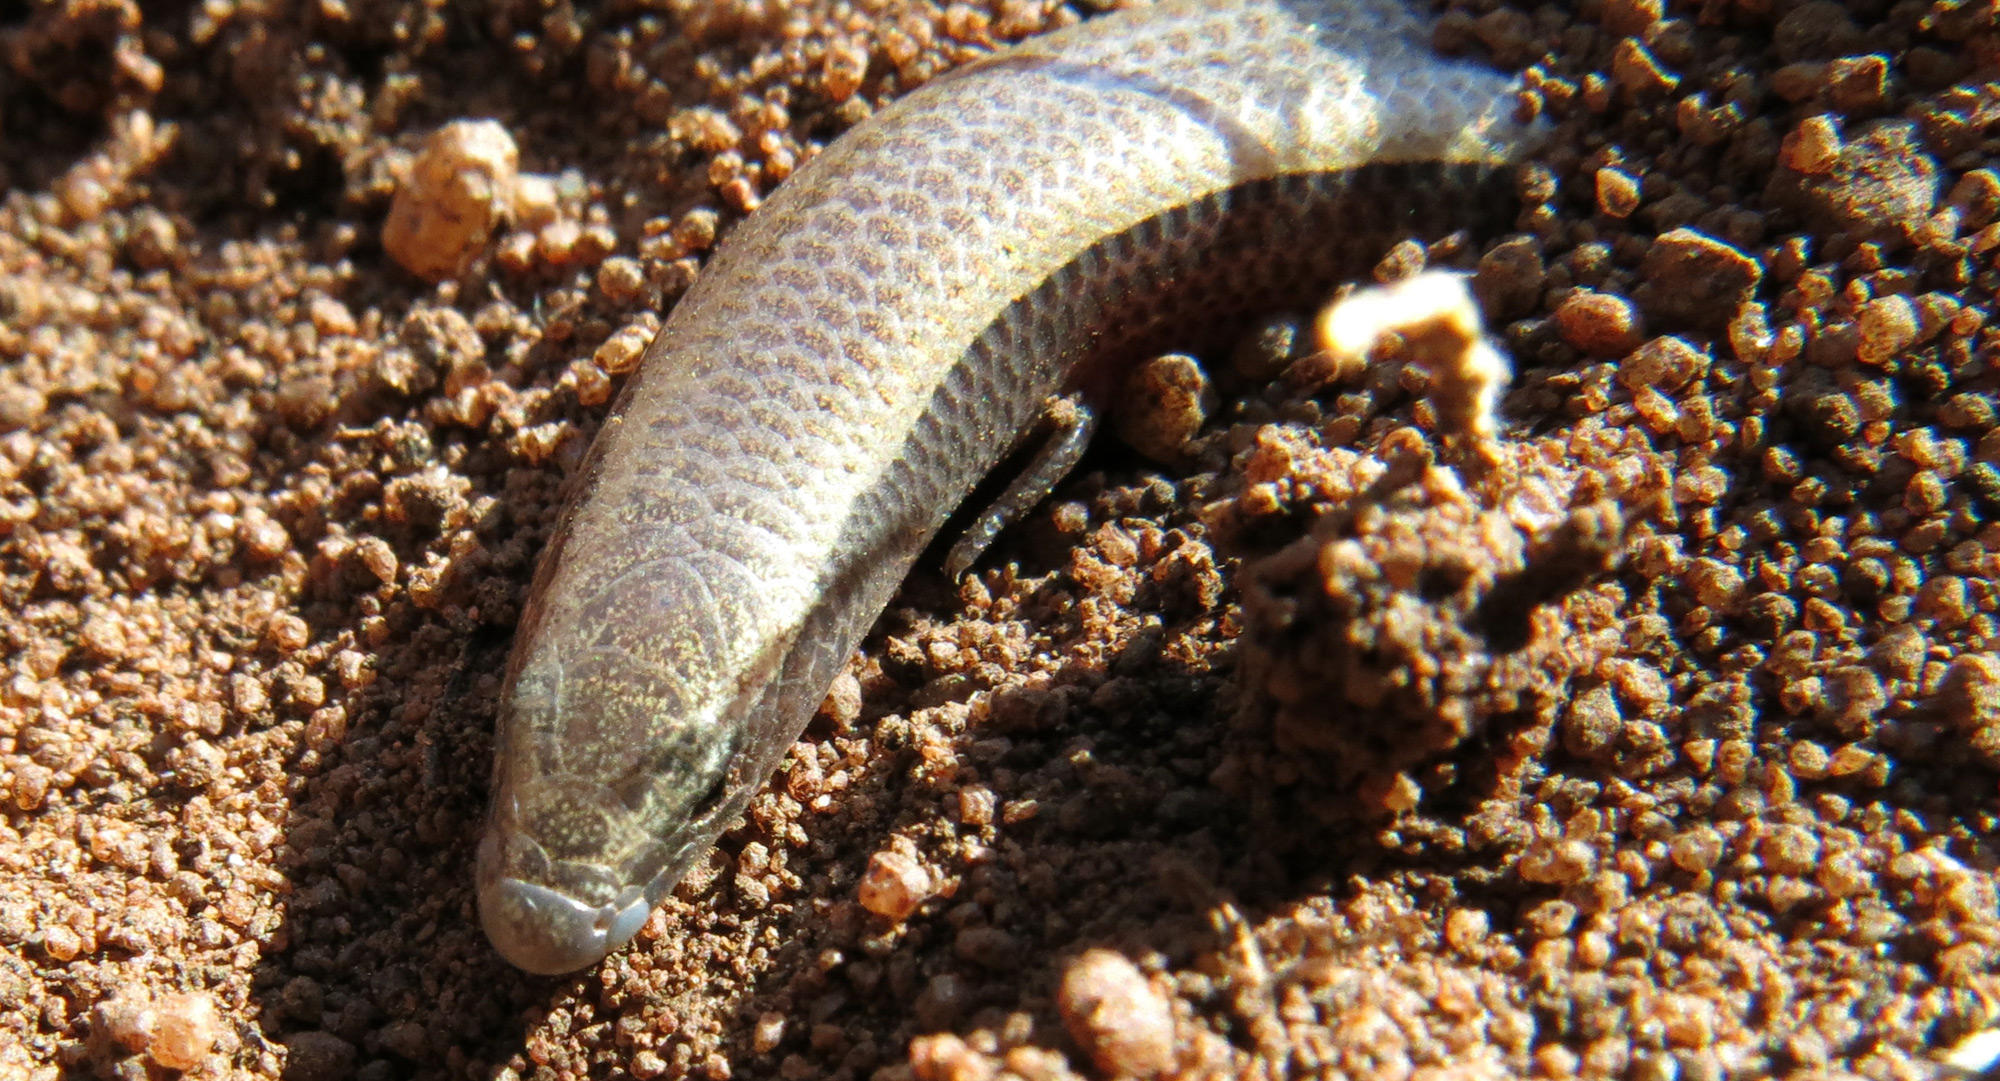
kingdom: Animalia
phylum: Chordata
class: Squamata
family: Scincidae
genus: Scelotes
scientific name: Scelotes limpopoensis
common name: Limpopo dwarf burrowing skink
